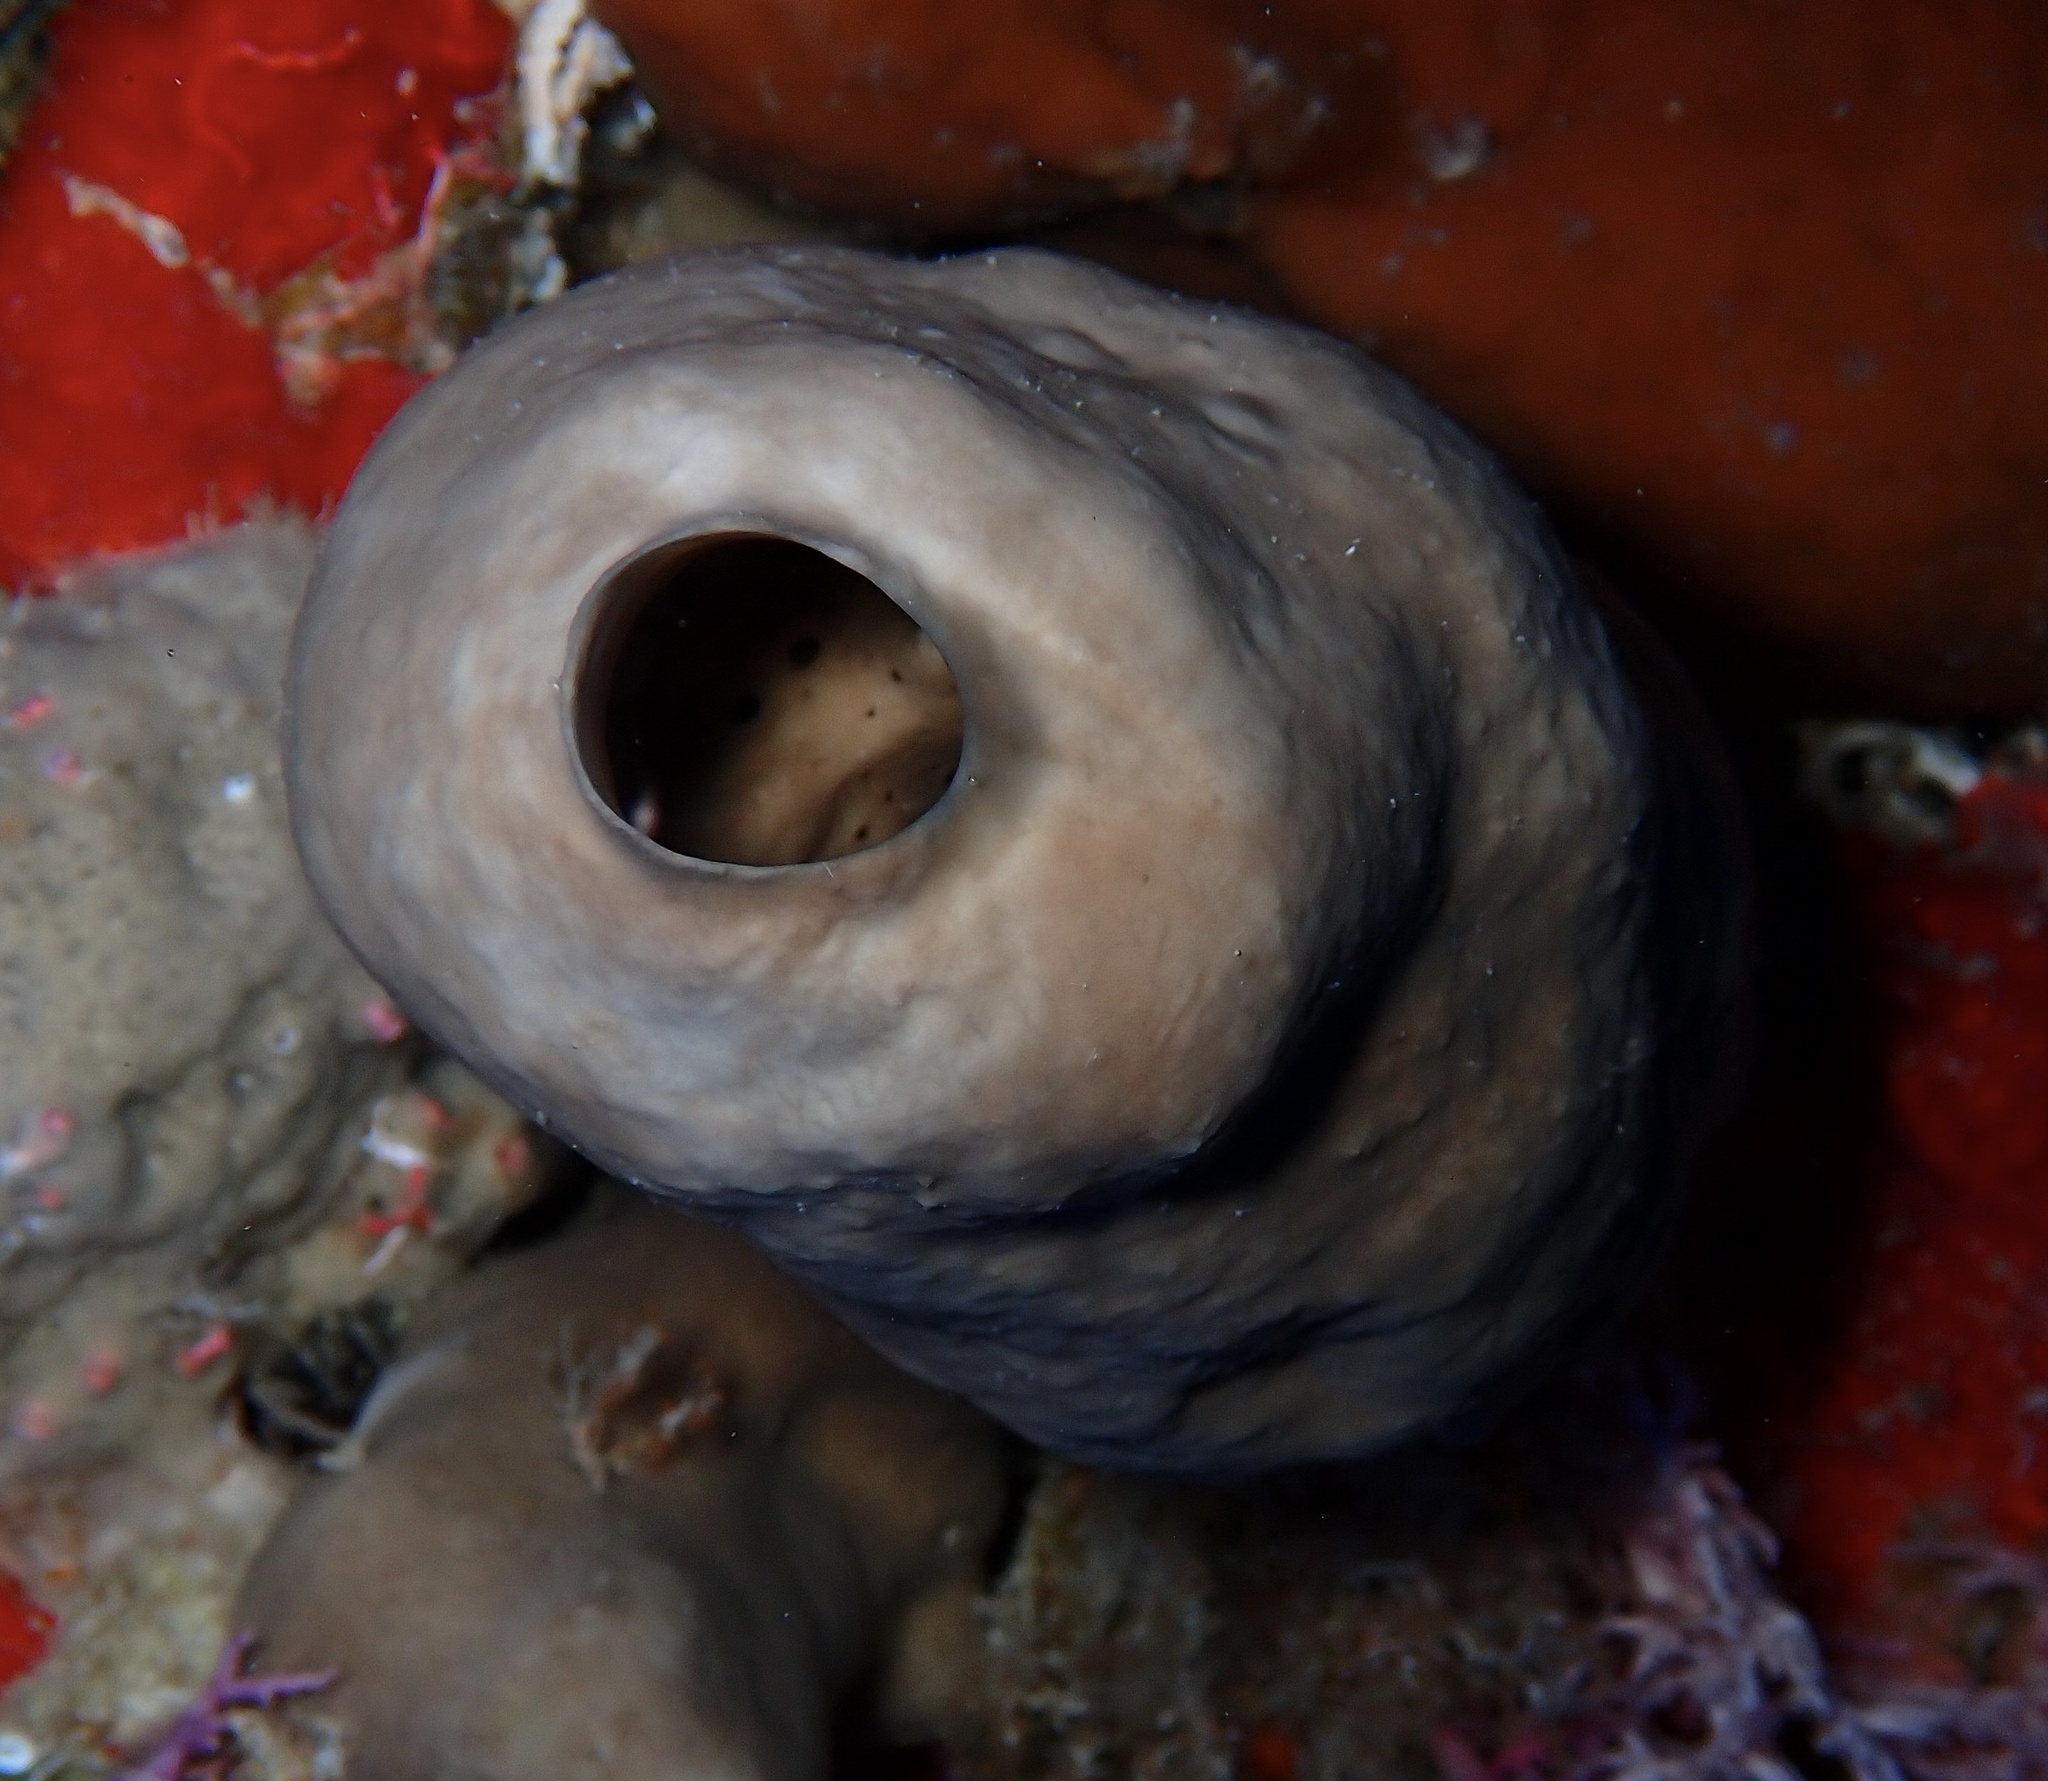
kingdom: Animalia
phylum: Porifera
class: Homoscleromorpha
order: Homosclerophorida
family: Plakinidae
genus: Plakinastrella
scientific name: Plakinastrella onkodes
